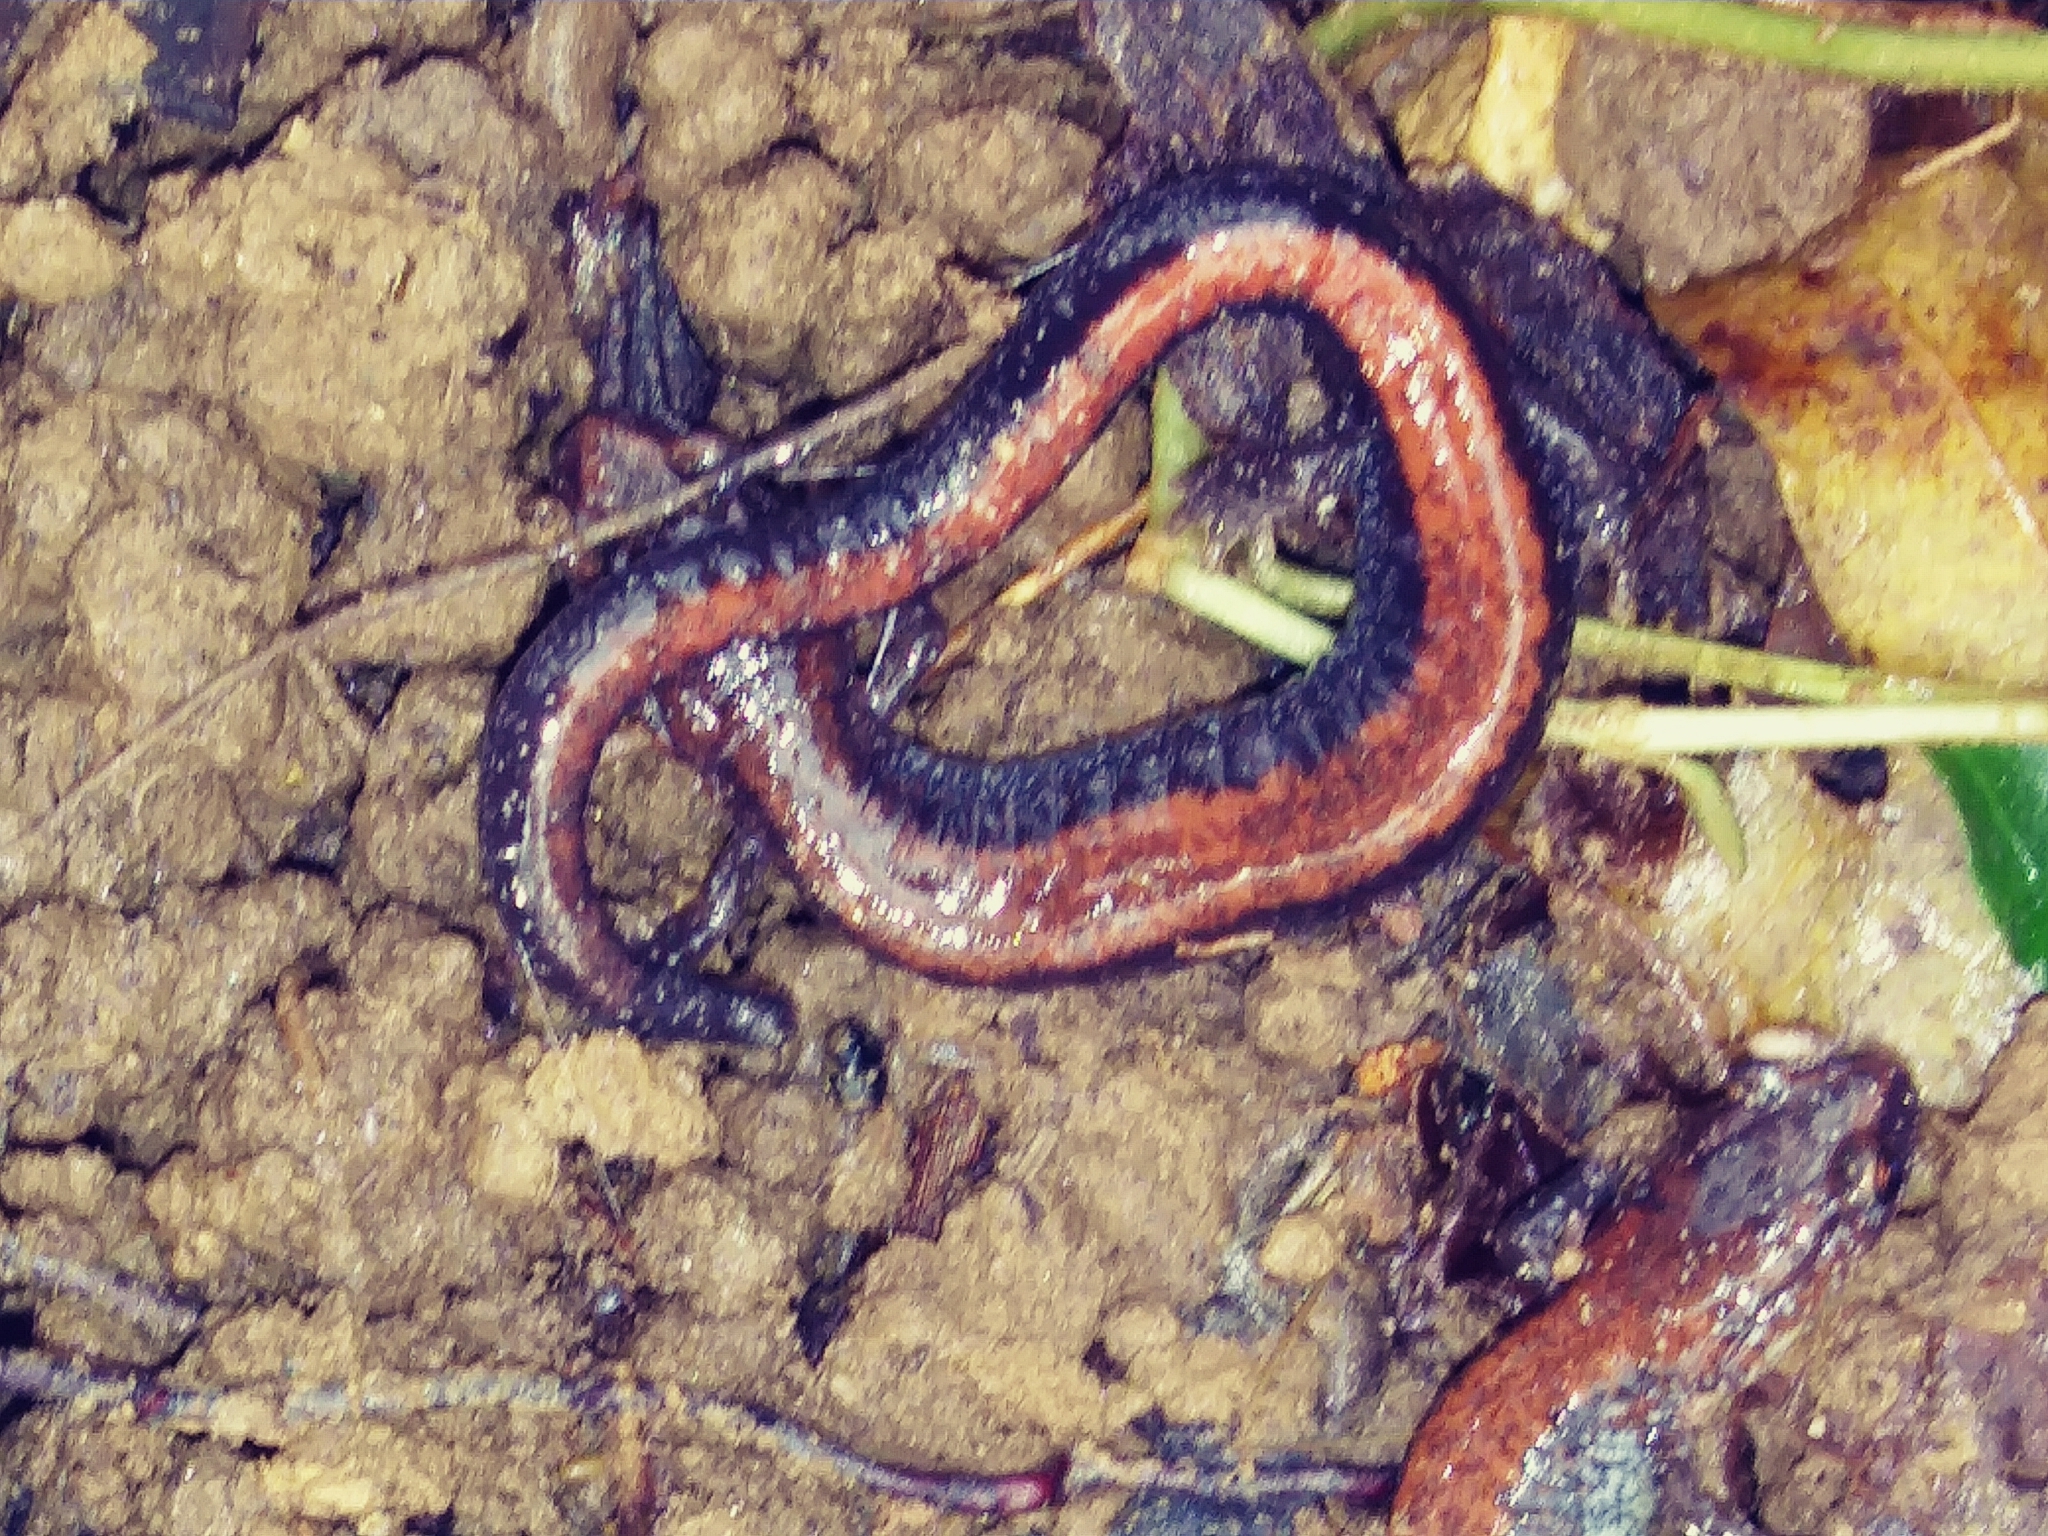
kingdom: Animalia
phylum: Chordata
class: Amphibia
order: Caudata
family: Plethodontidae
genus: Plethodon
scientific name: Plethodon cinereus
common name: Redback salamander
